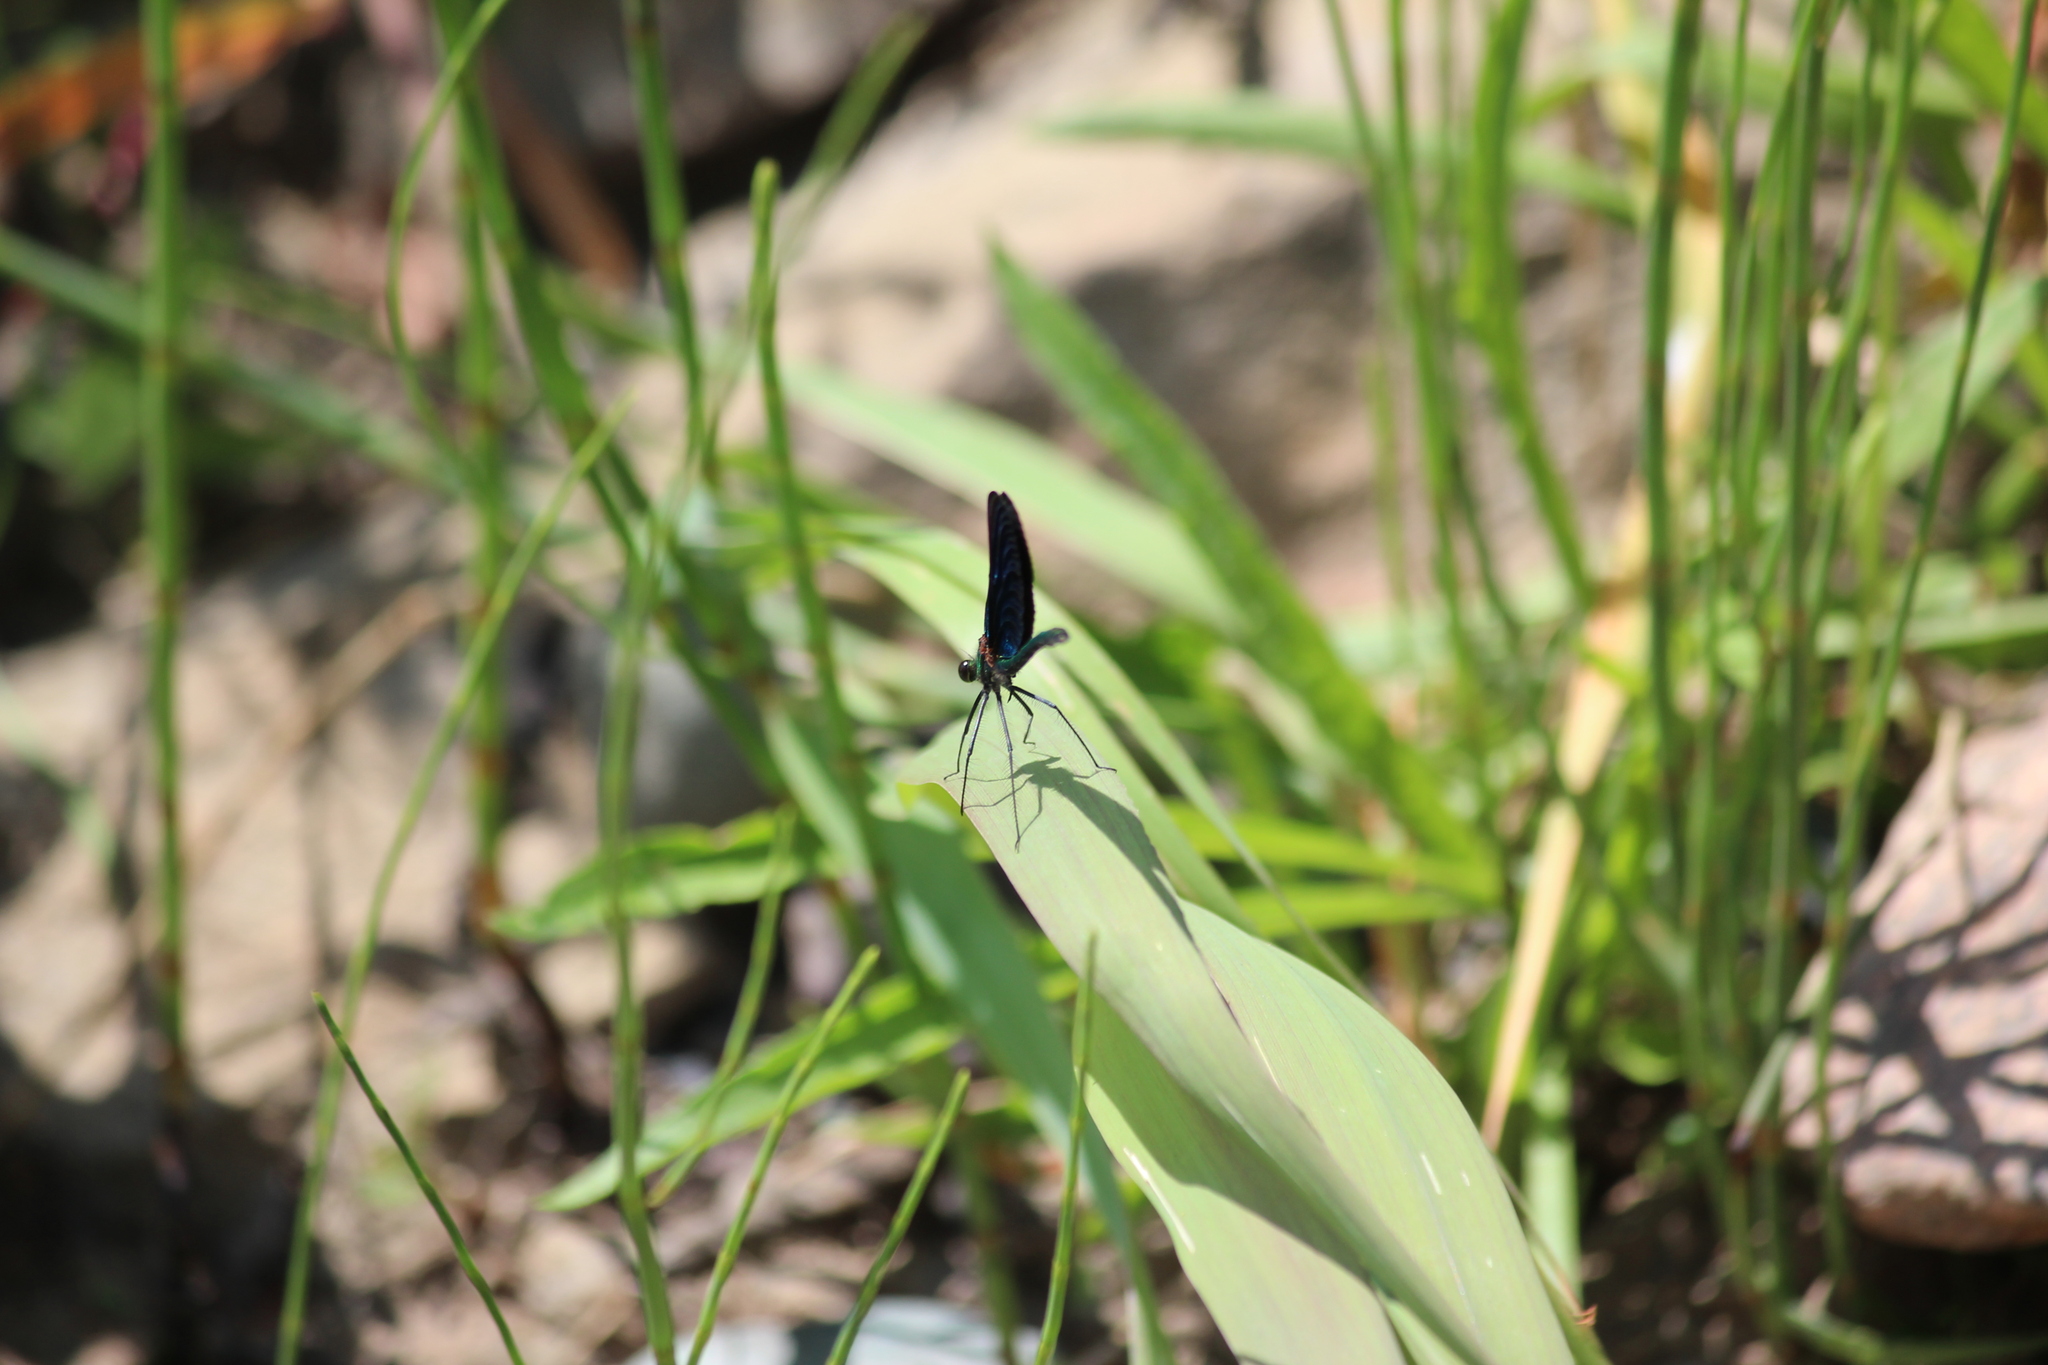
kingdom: Animalia
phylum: Arthropoda
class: Insecta
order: Odonata
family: Calopterygidae
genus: Calopteryx
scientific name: Calopteryx japonica
